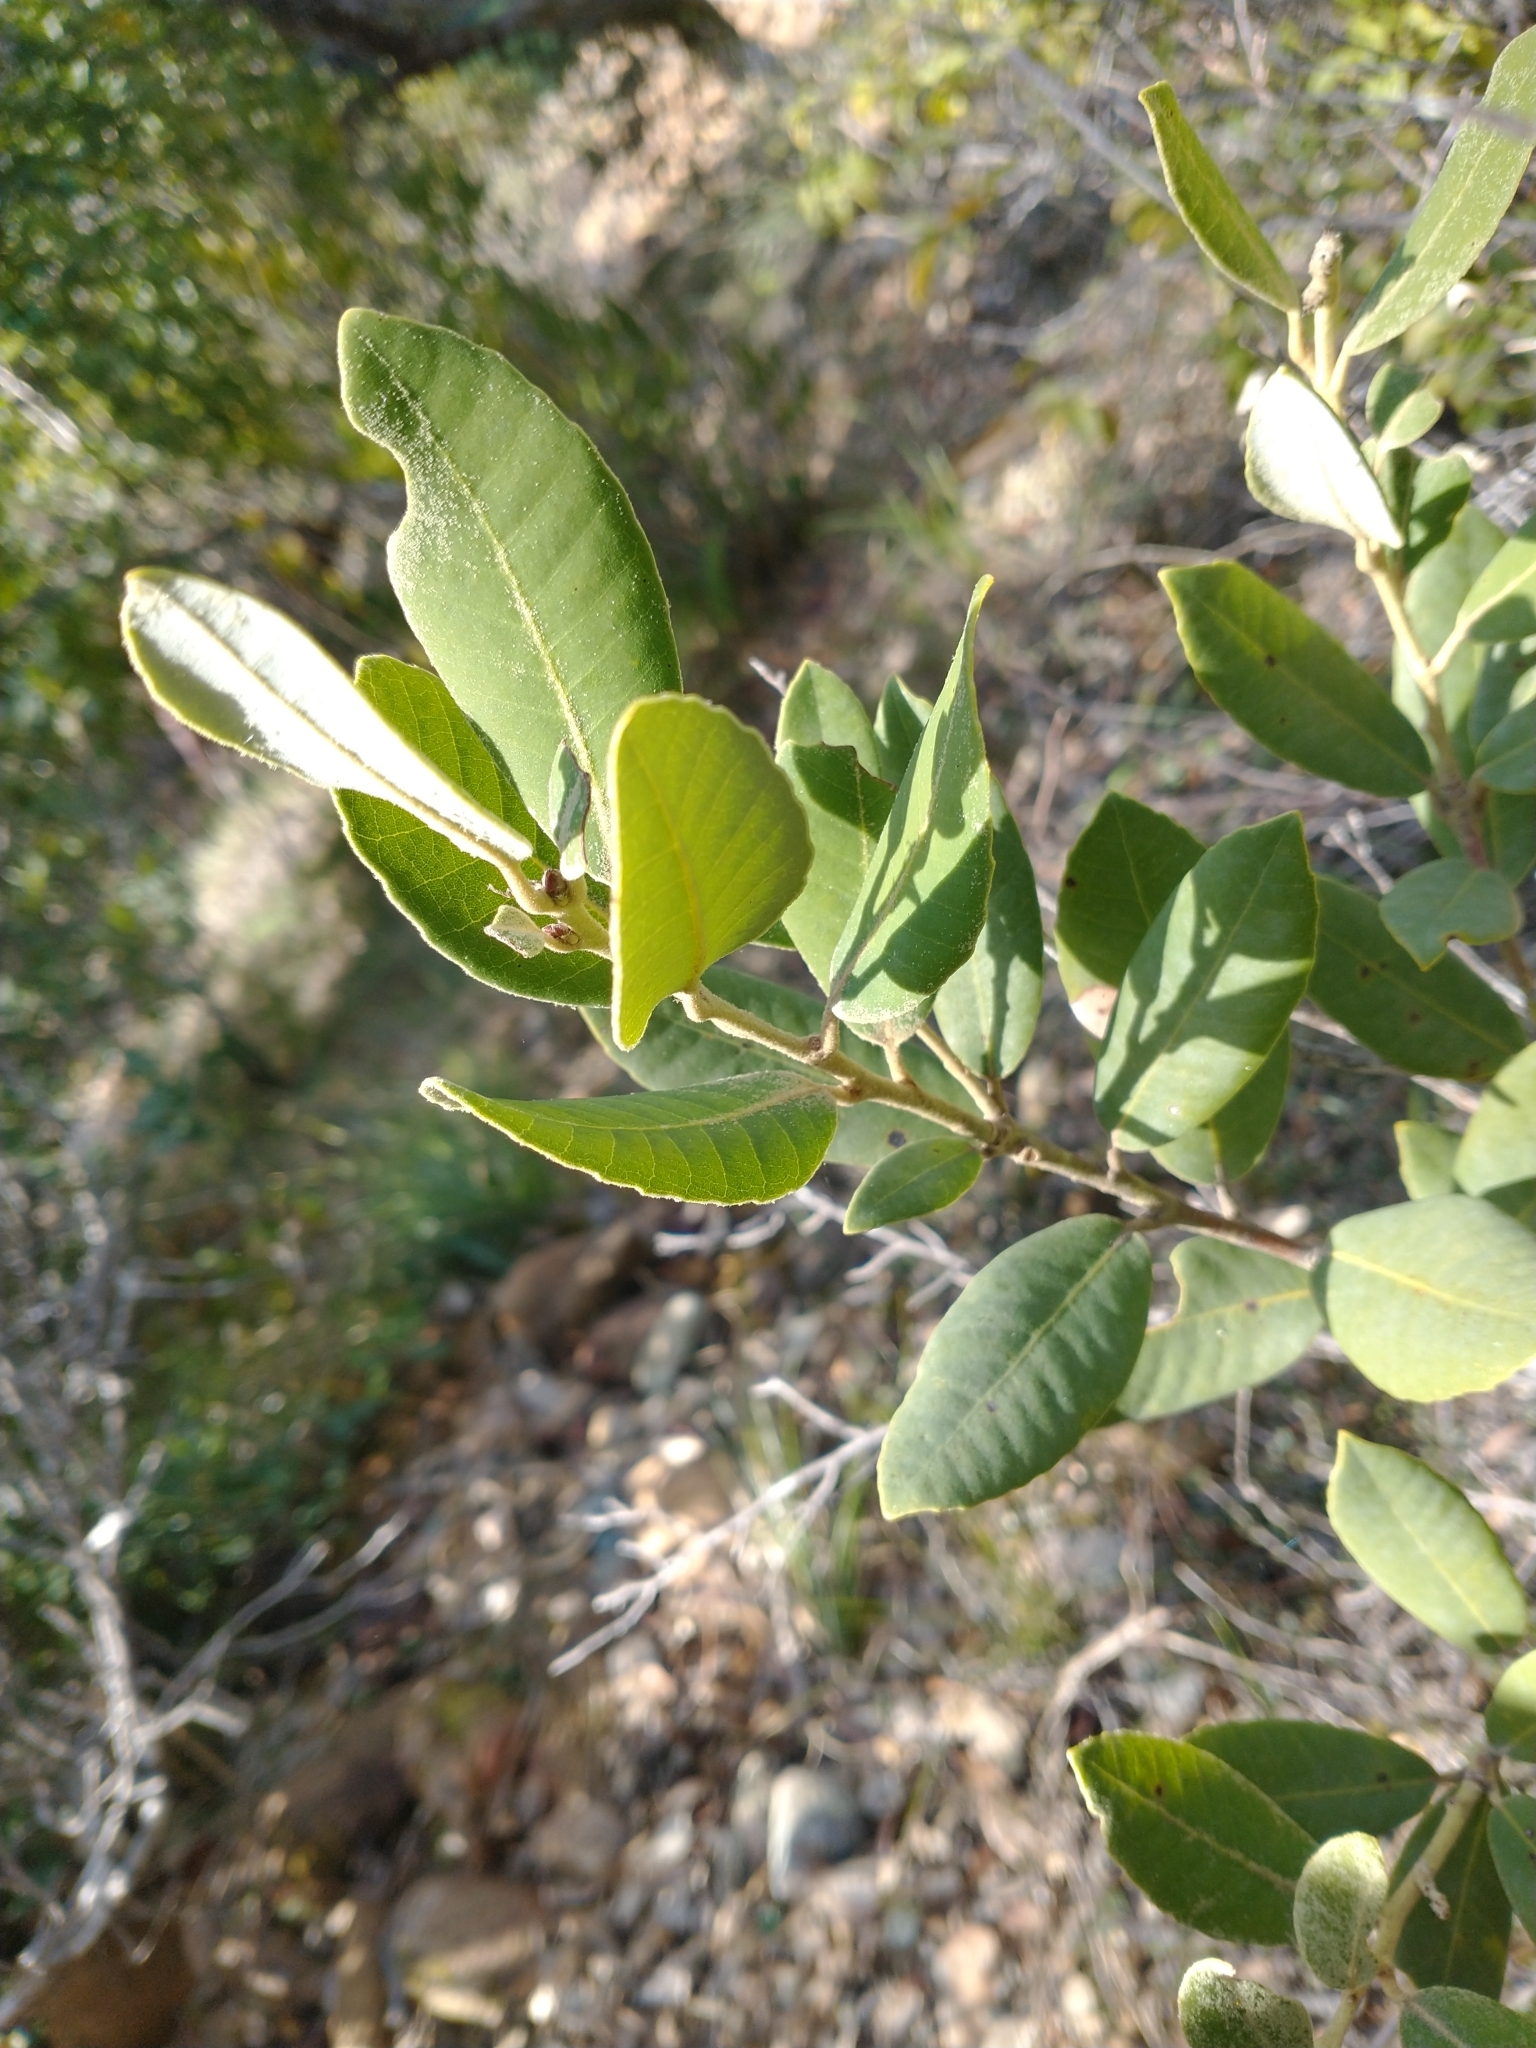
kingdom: Plantae
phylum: Tracheophyta
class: Magnoliopsida
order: Fagales
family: Fagaceae
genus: Notholithocarpus
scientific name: Notholithocarpus densiflorus
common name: Tan bark oak
